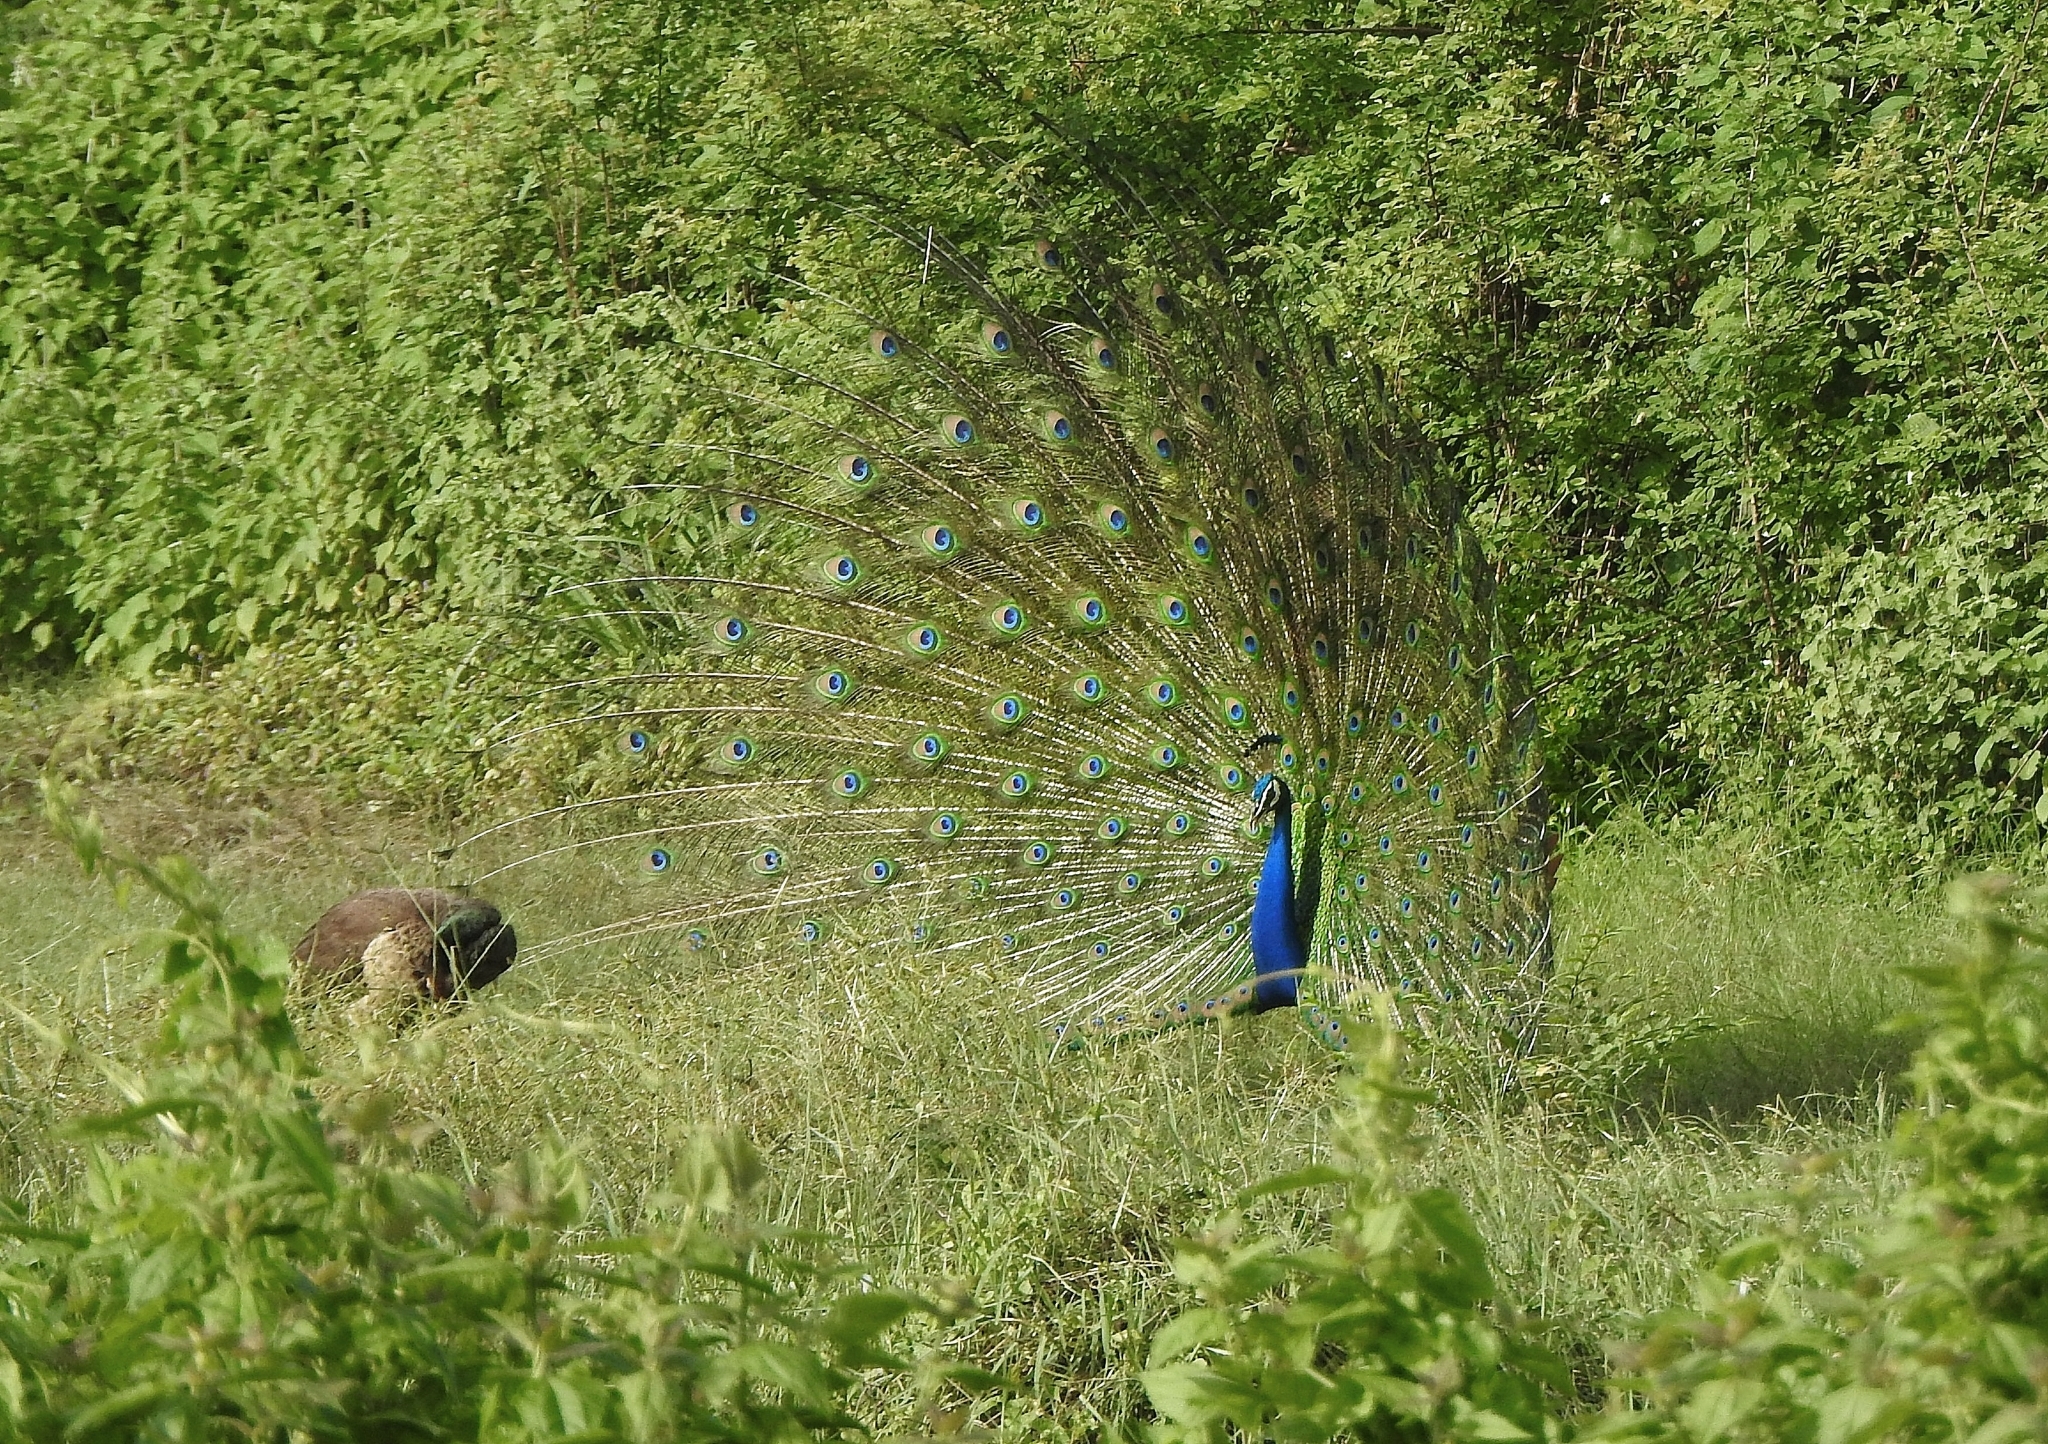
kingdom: Animalia
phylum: Chordata
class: Aves
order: Galliformes
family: Phasianidae
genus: Pavo
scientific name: Pavo cristatus
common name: Indian peafowl
